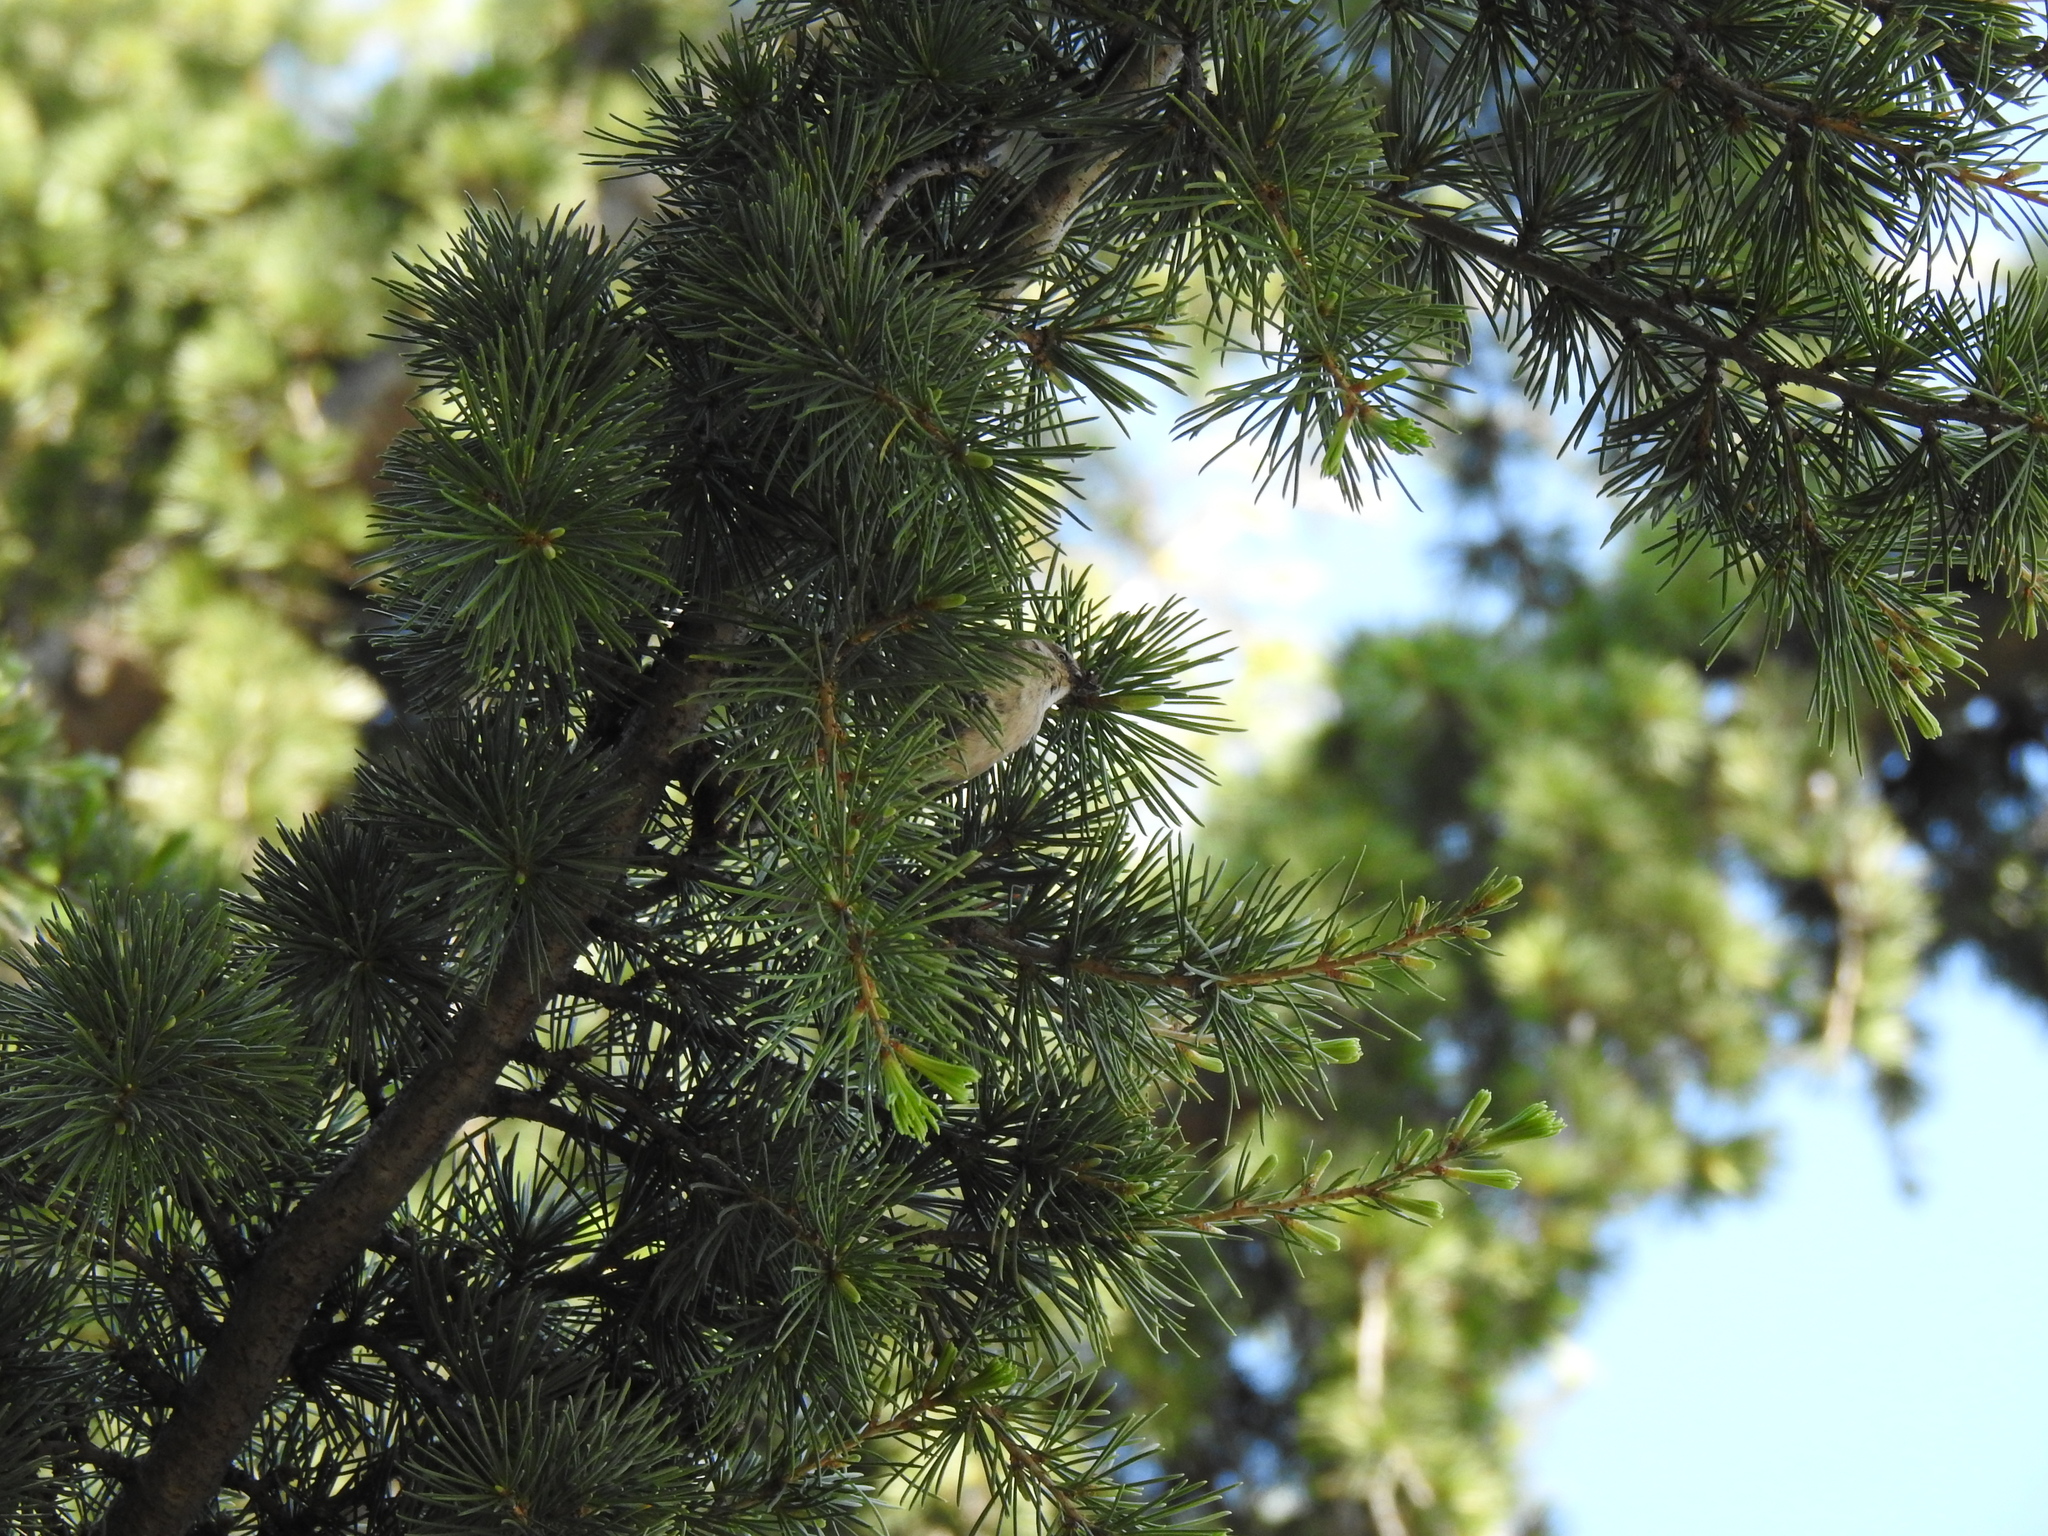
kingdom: Animalia
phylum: Chordata
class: Aves
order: Passeriformes
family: Aegithalidae
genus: Psaltriparus
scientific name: Psaltriparus minimus
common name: American bushtit
